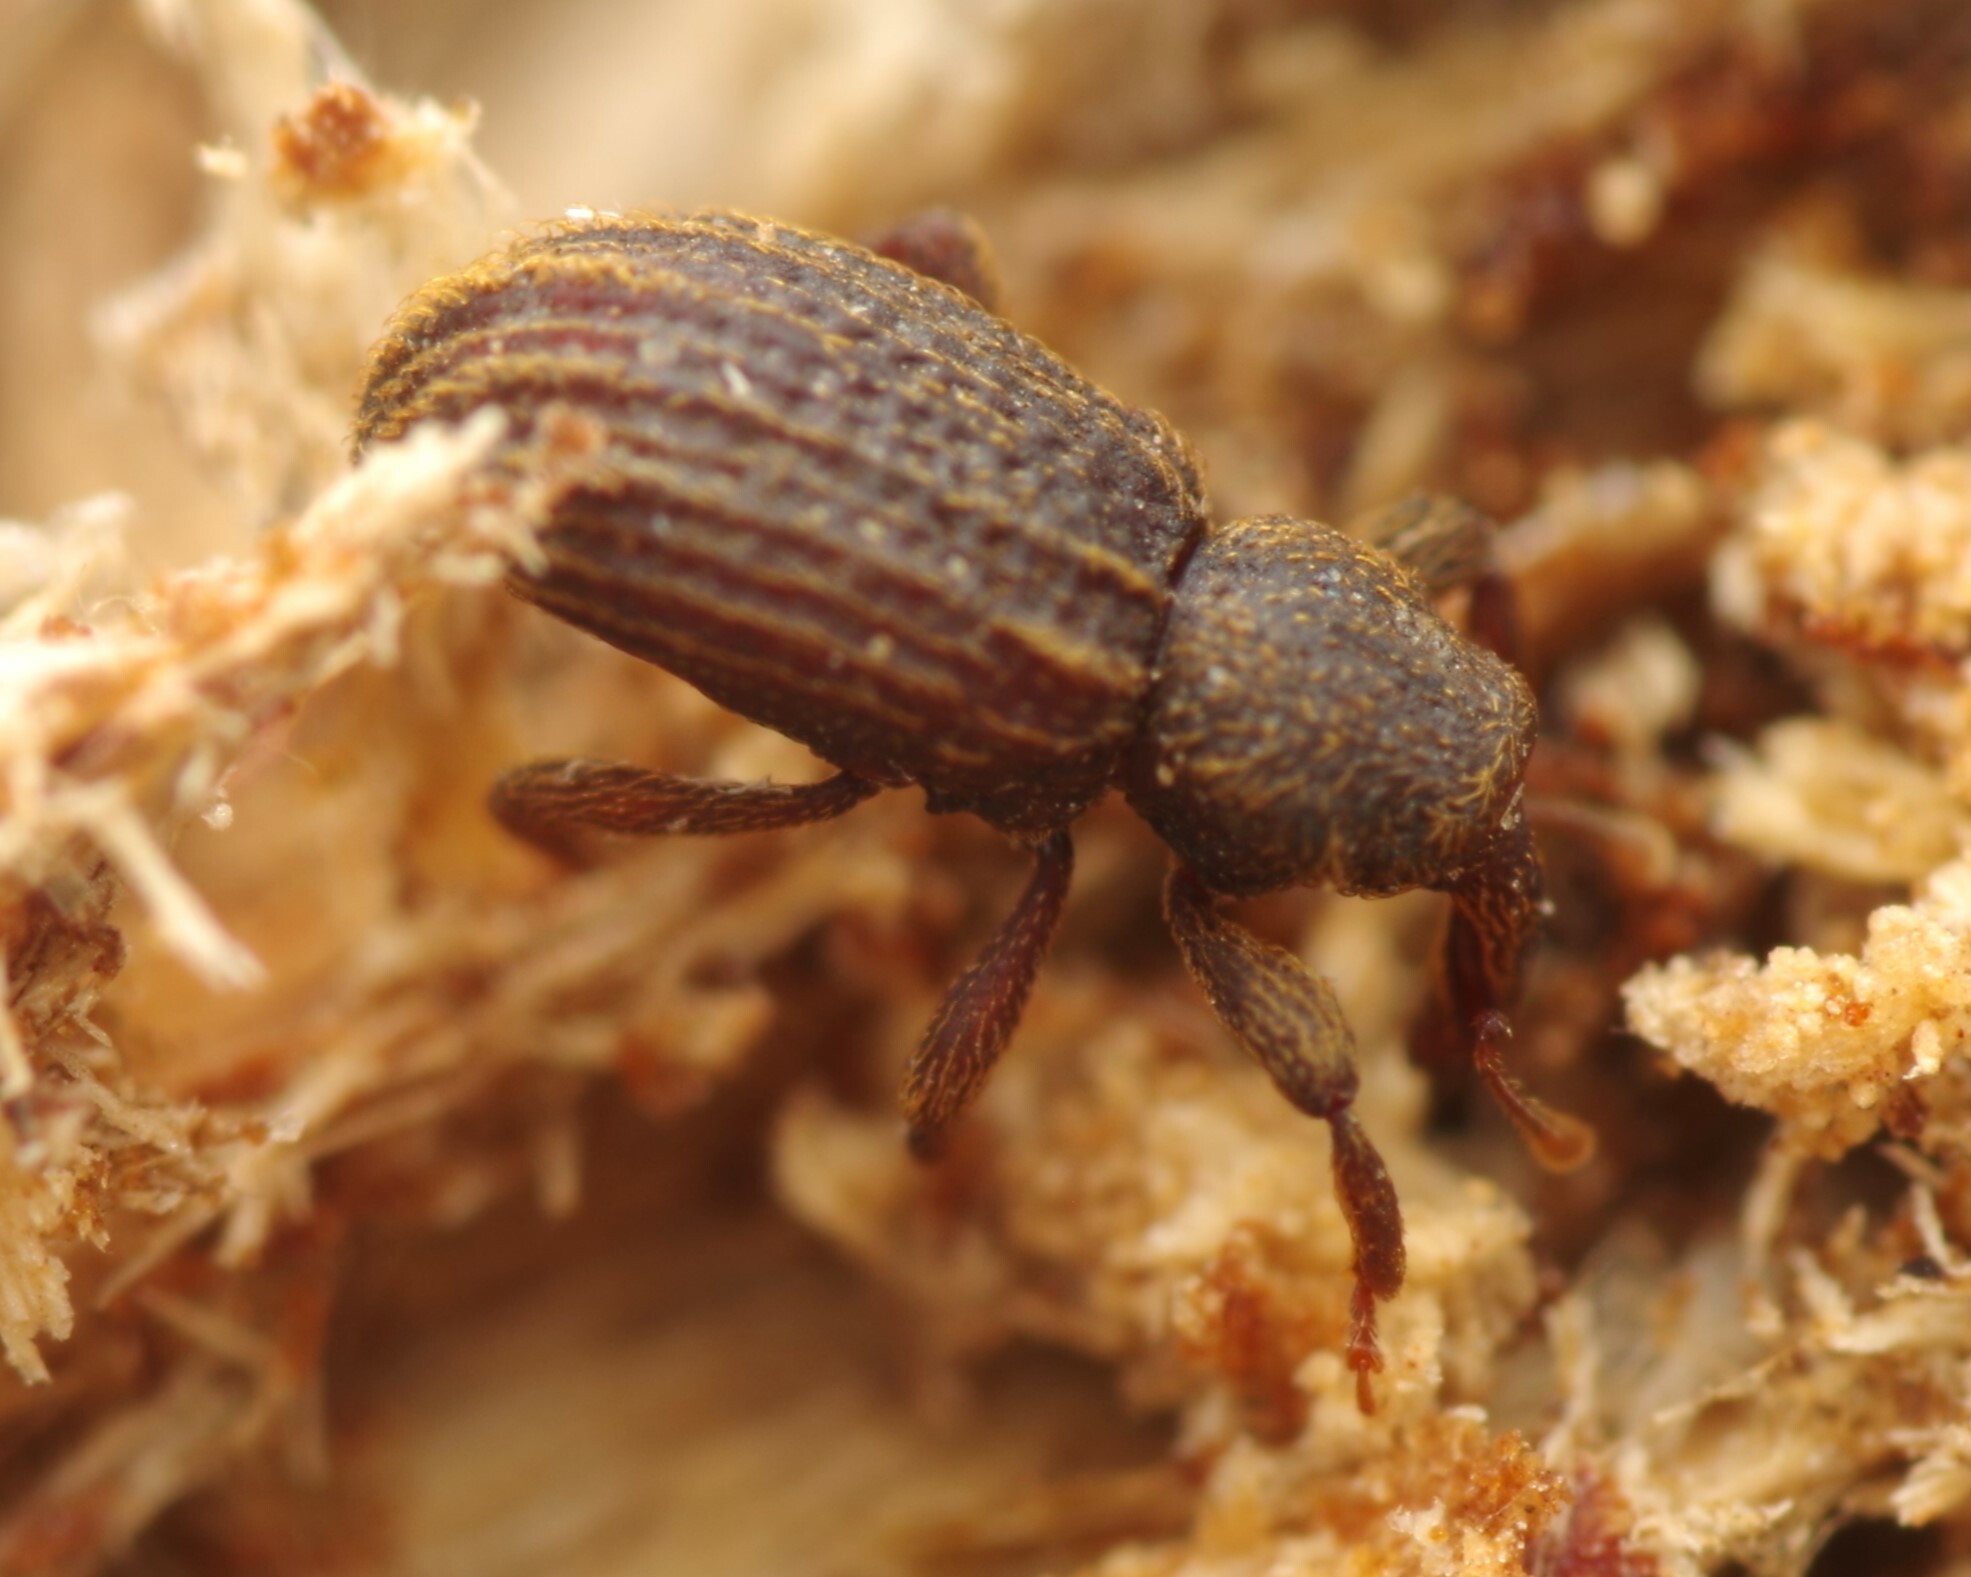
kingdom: Animalia
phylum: Arthropoda
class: Insecta
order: Coleoptera
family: Curculionidae
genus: Anchonidium
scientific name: Anchonidium unguiculare
